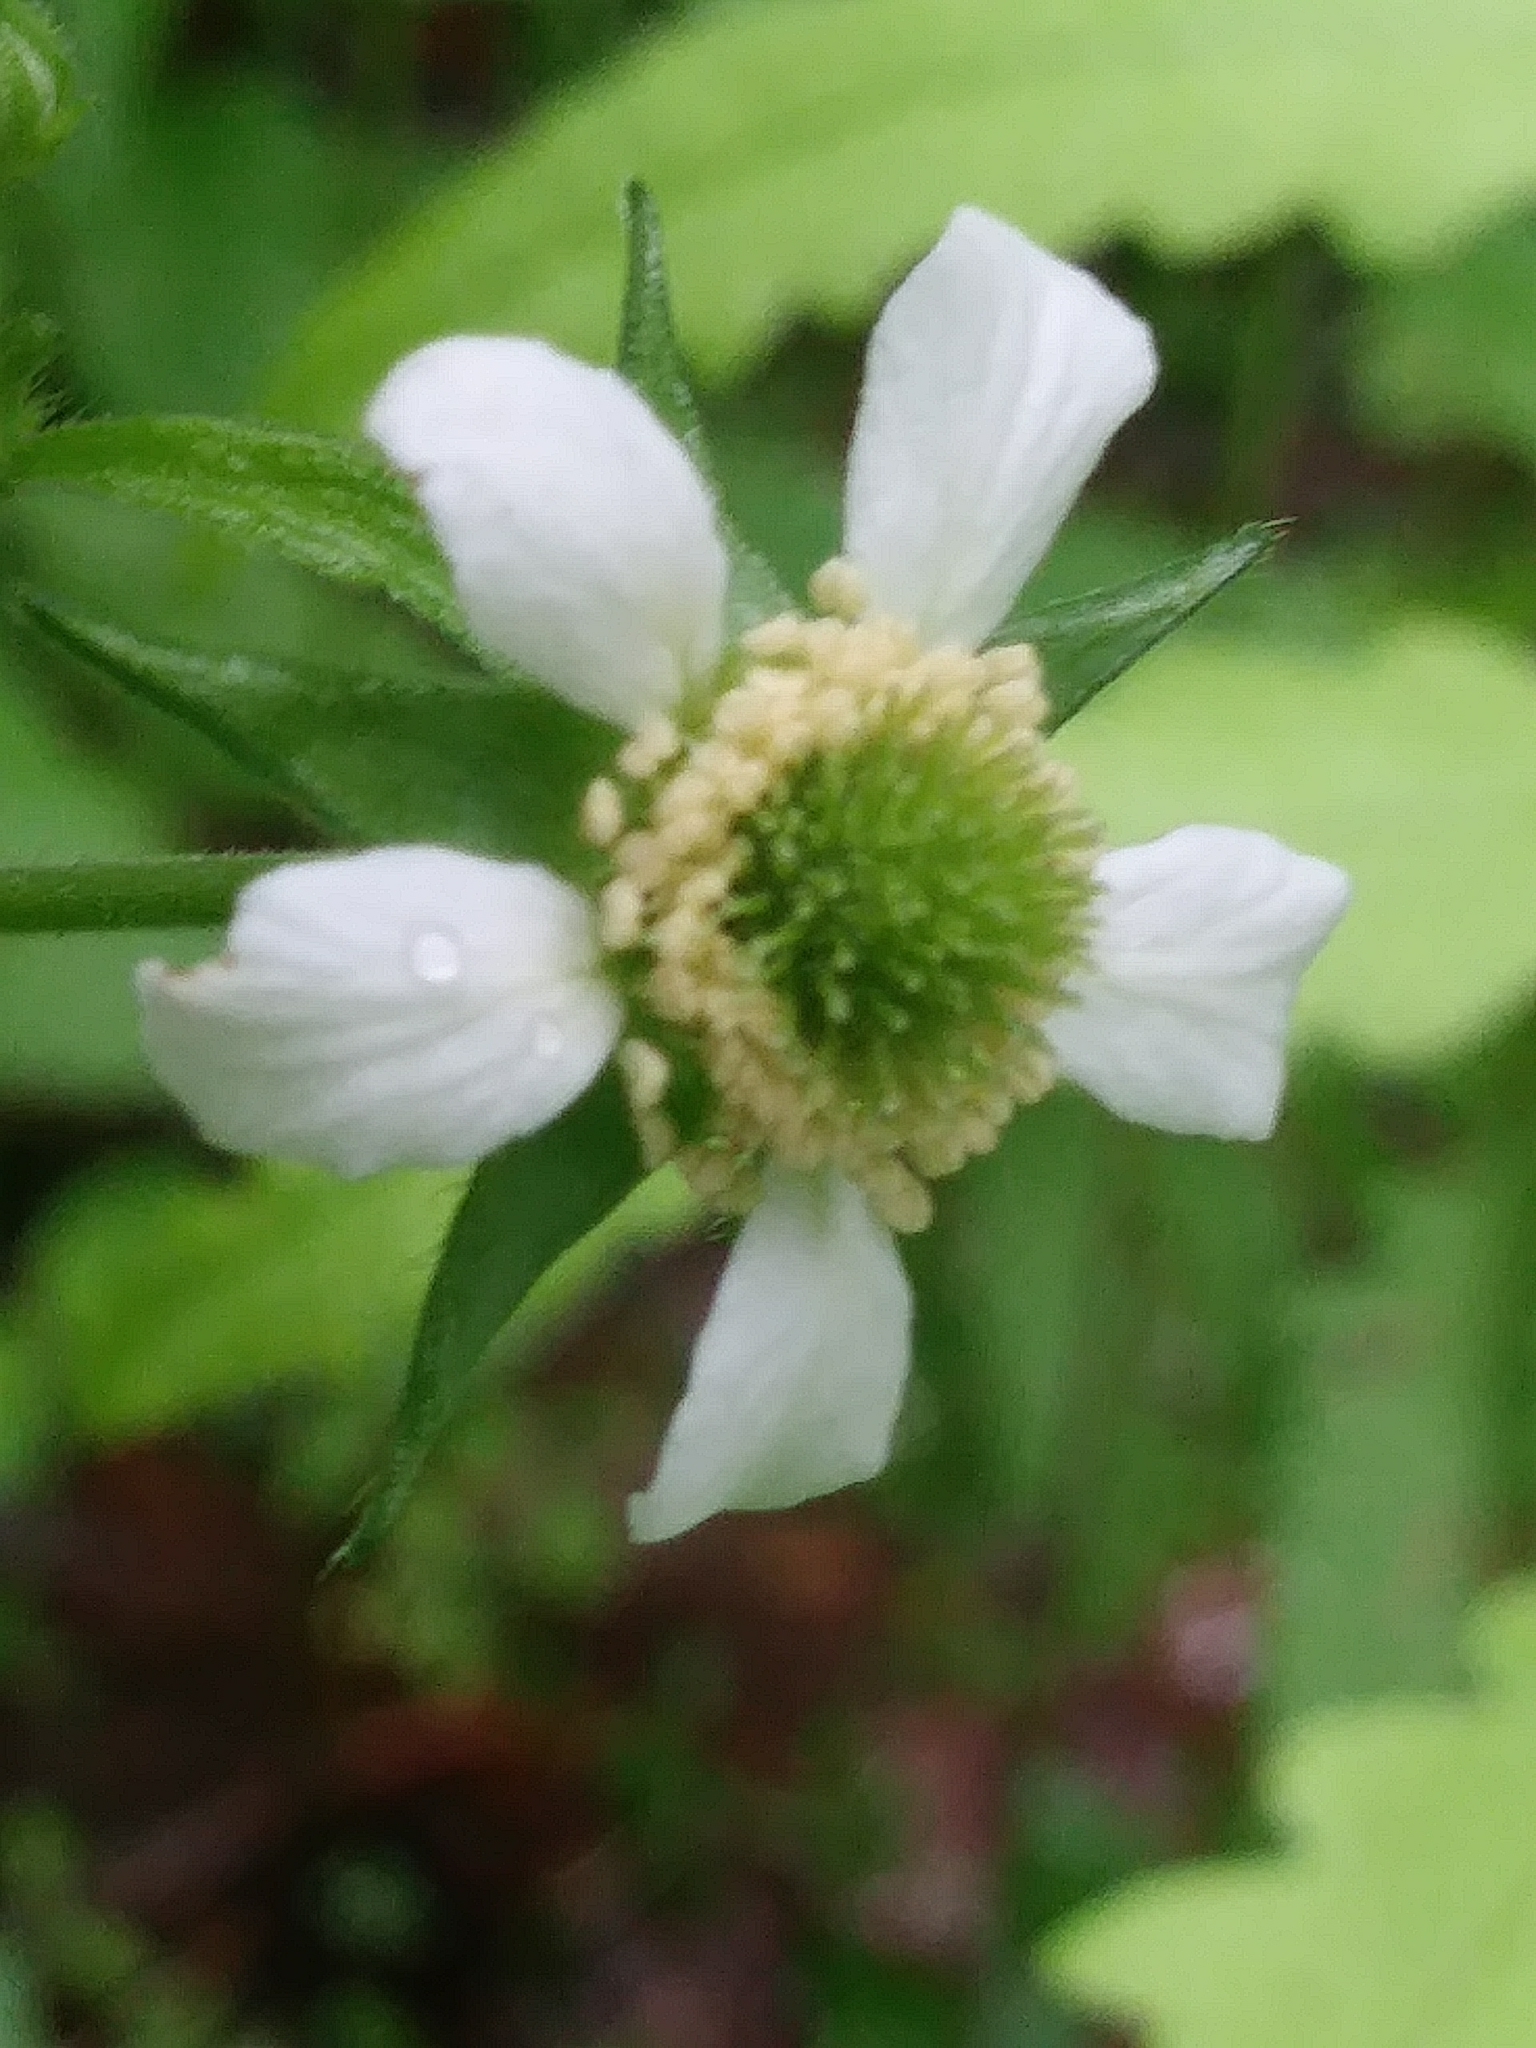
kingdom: Plantae
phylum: Tracheophyta
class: Magnoliopsida
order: Rosales
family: Rosaceae
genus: Geum
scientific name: Geum canadense
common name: White avens
